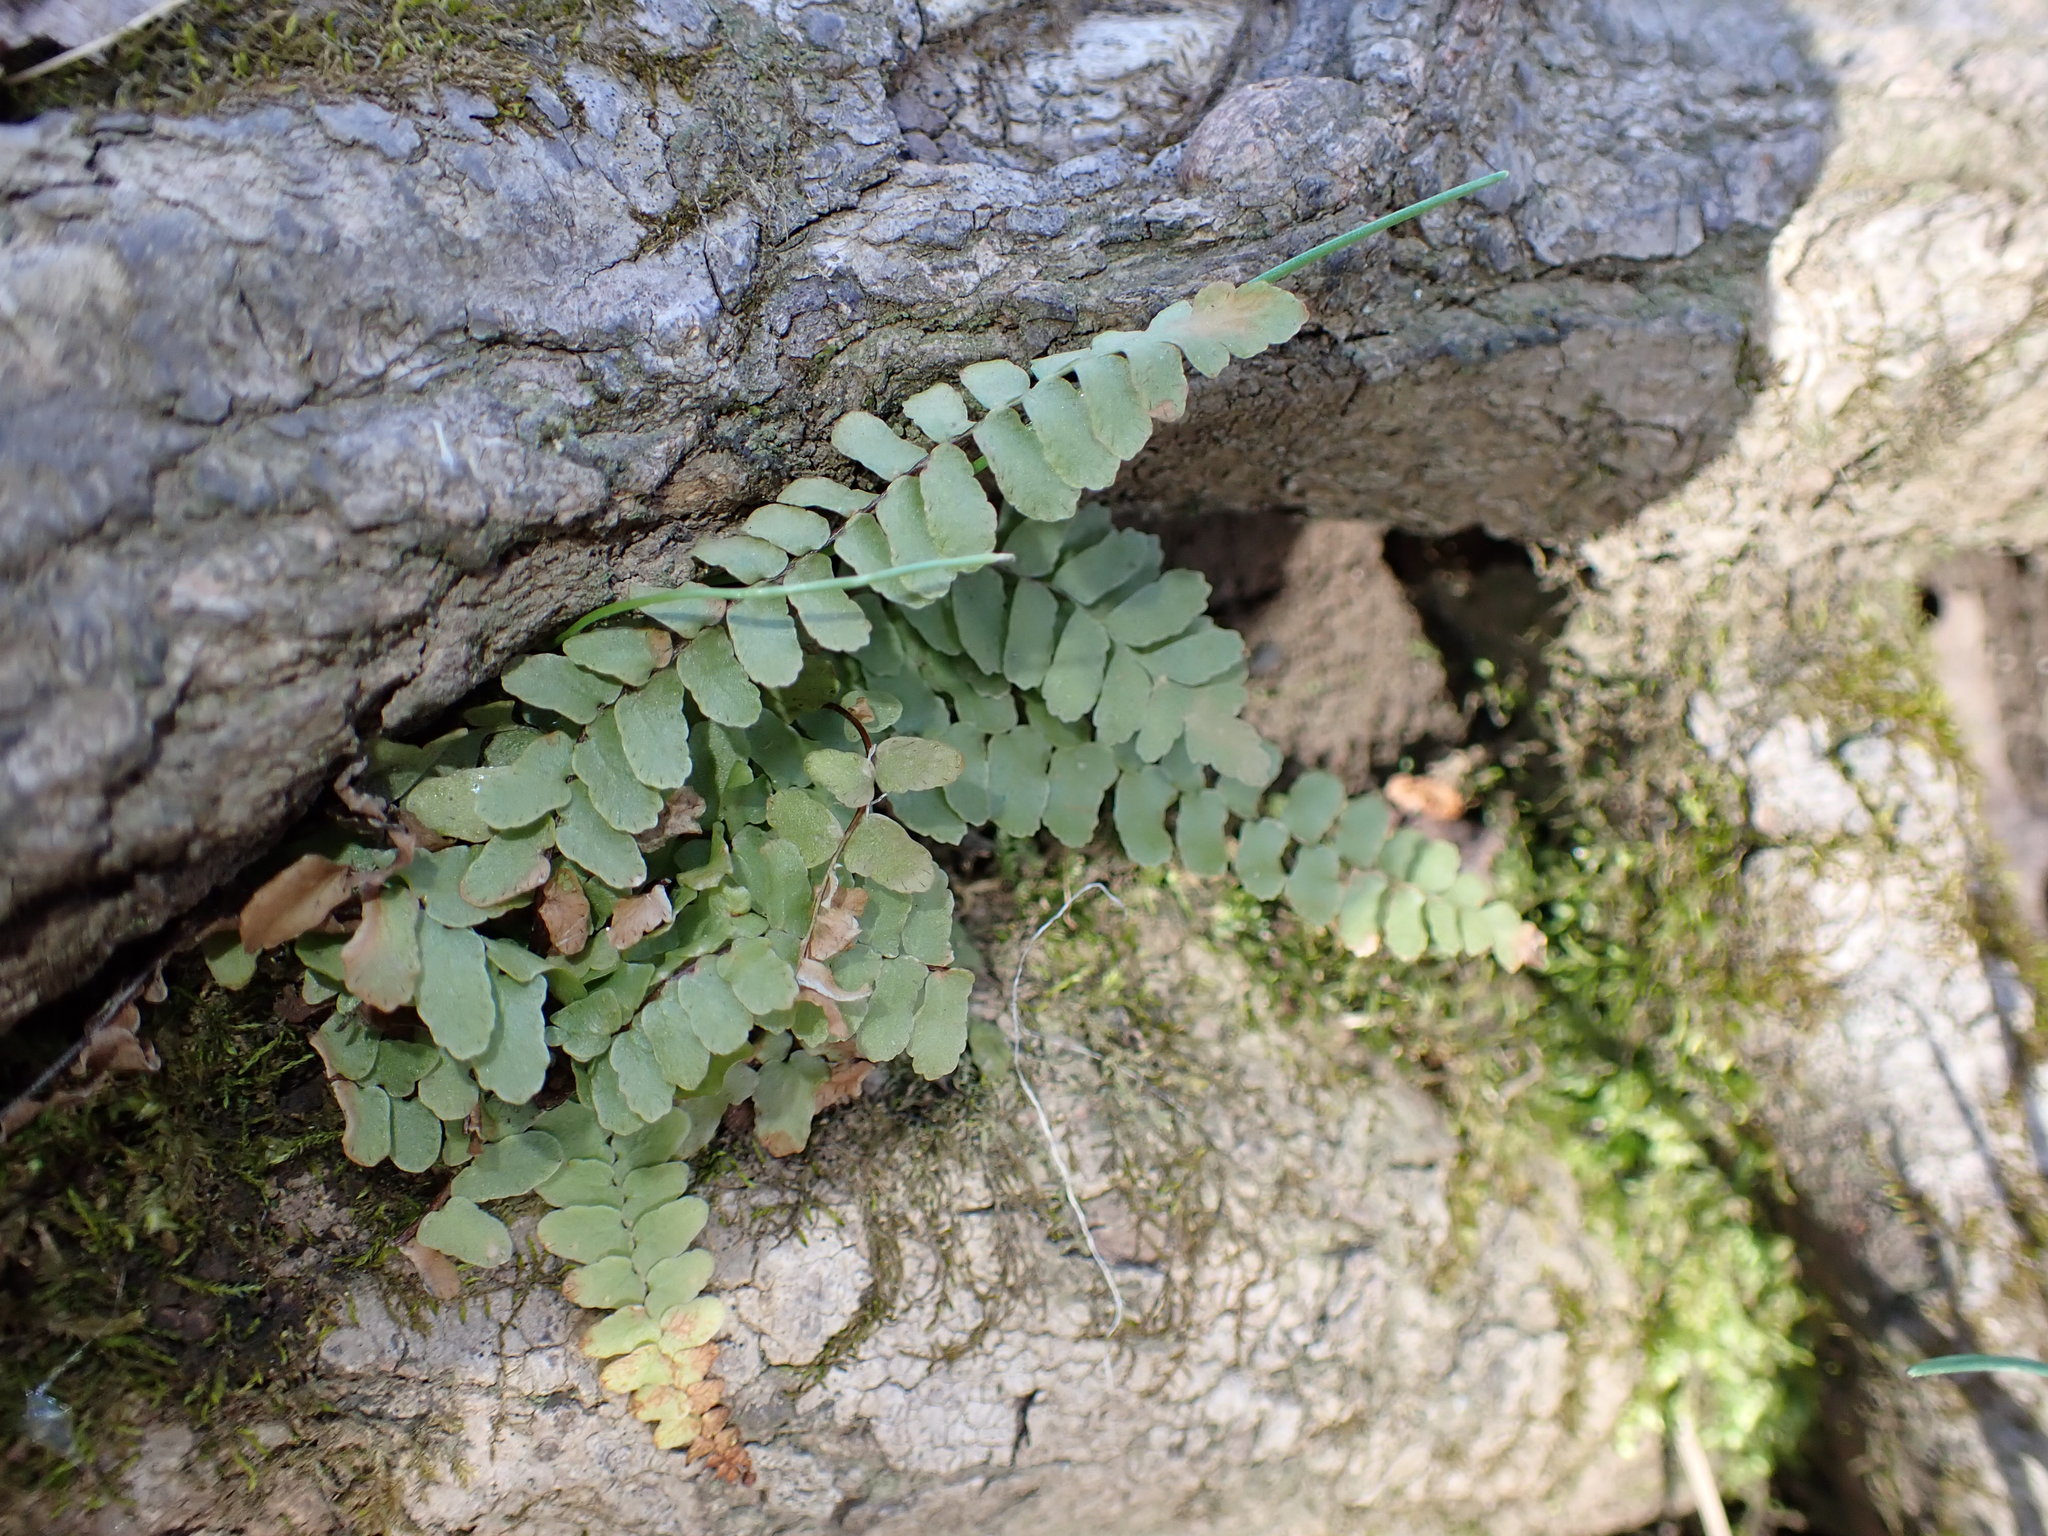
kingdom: Plantae
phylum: Tracheophyta
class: Polypodiopsida
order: Polypodiales
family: Aspleniaceae
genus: Asplenium
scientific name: Asplenium platyneuron
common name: Ebony spleenwort
